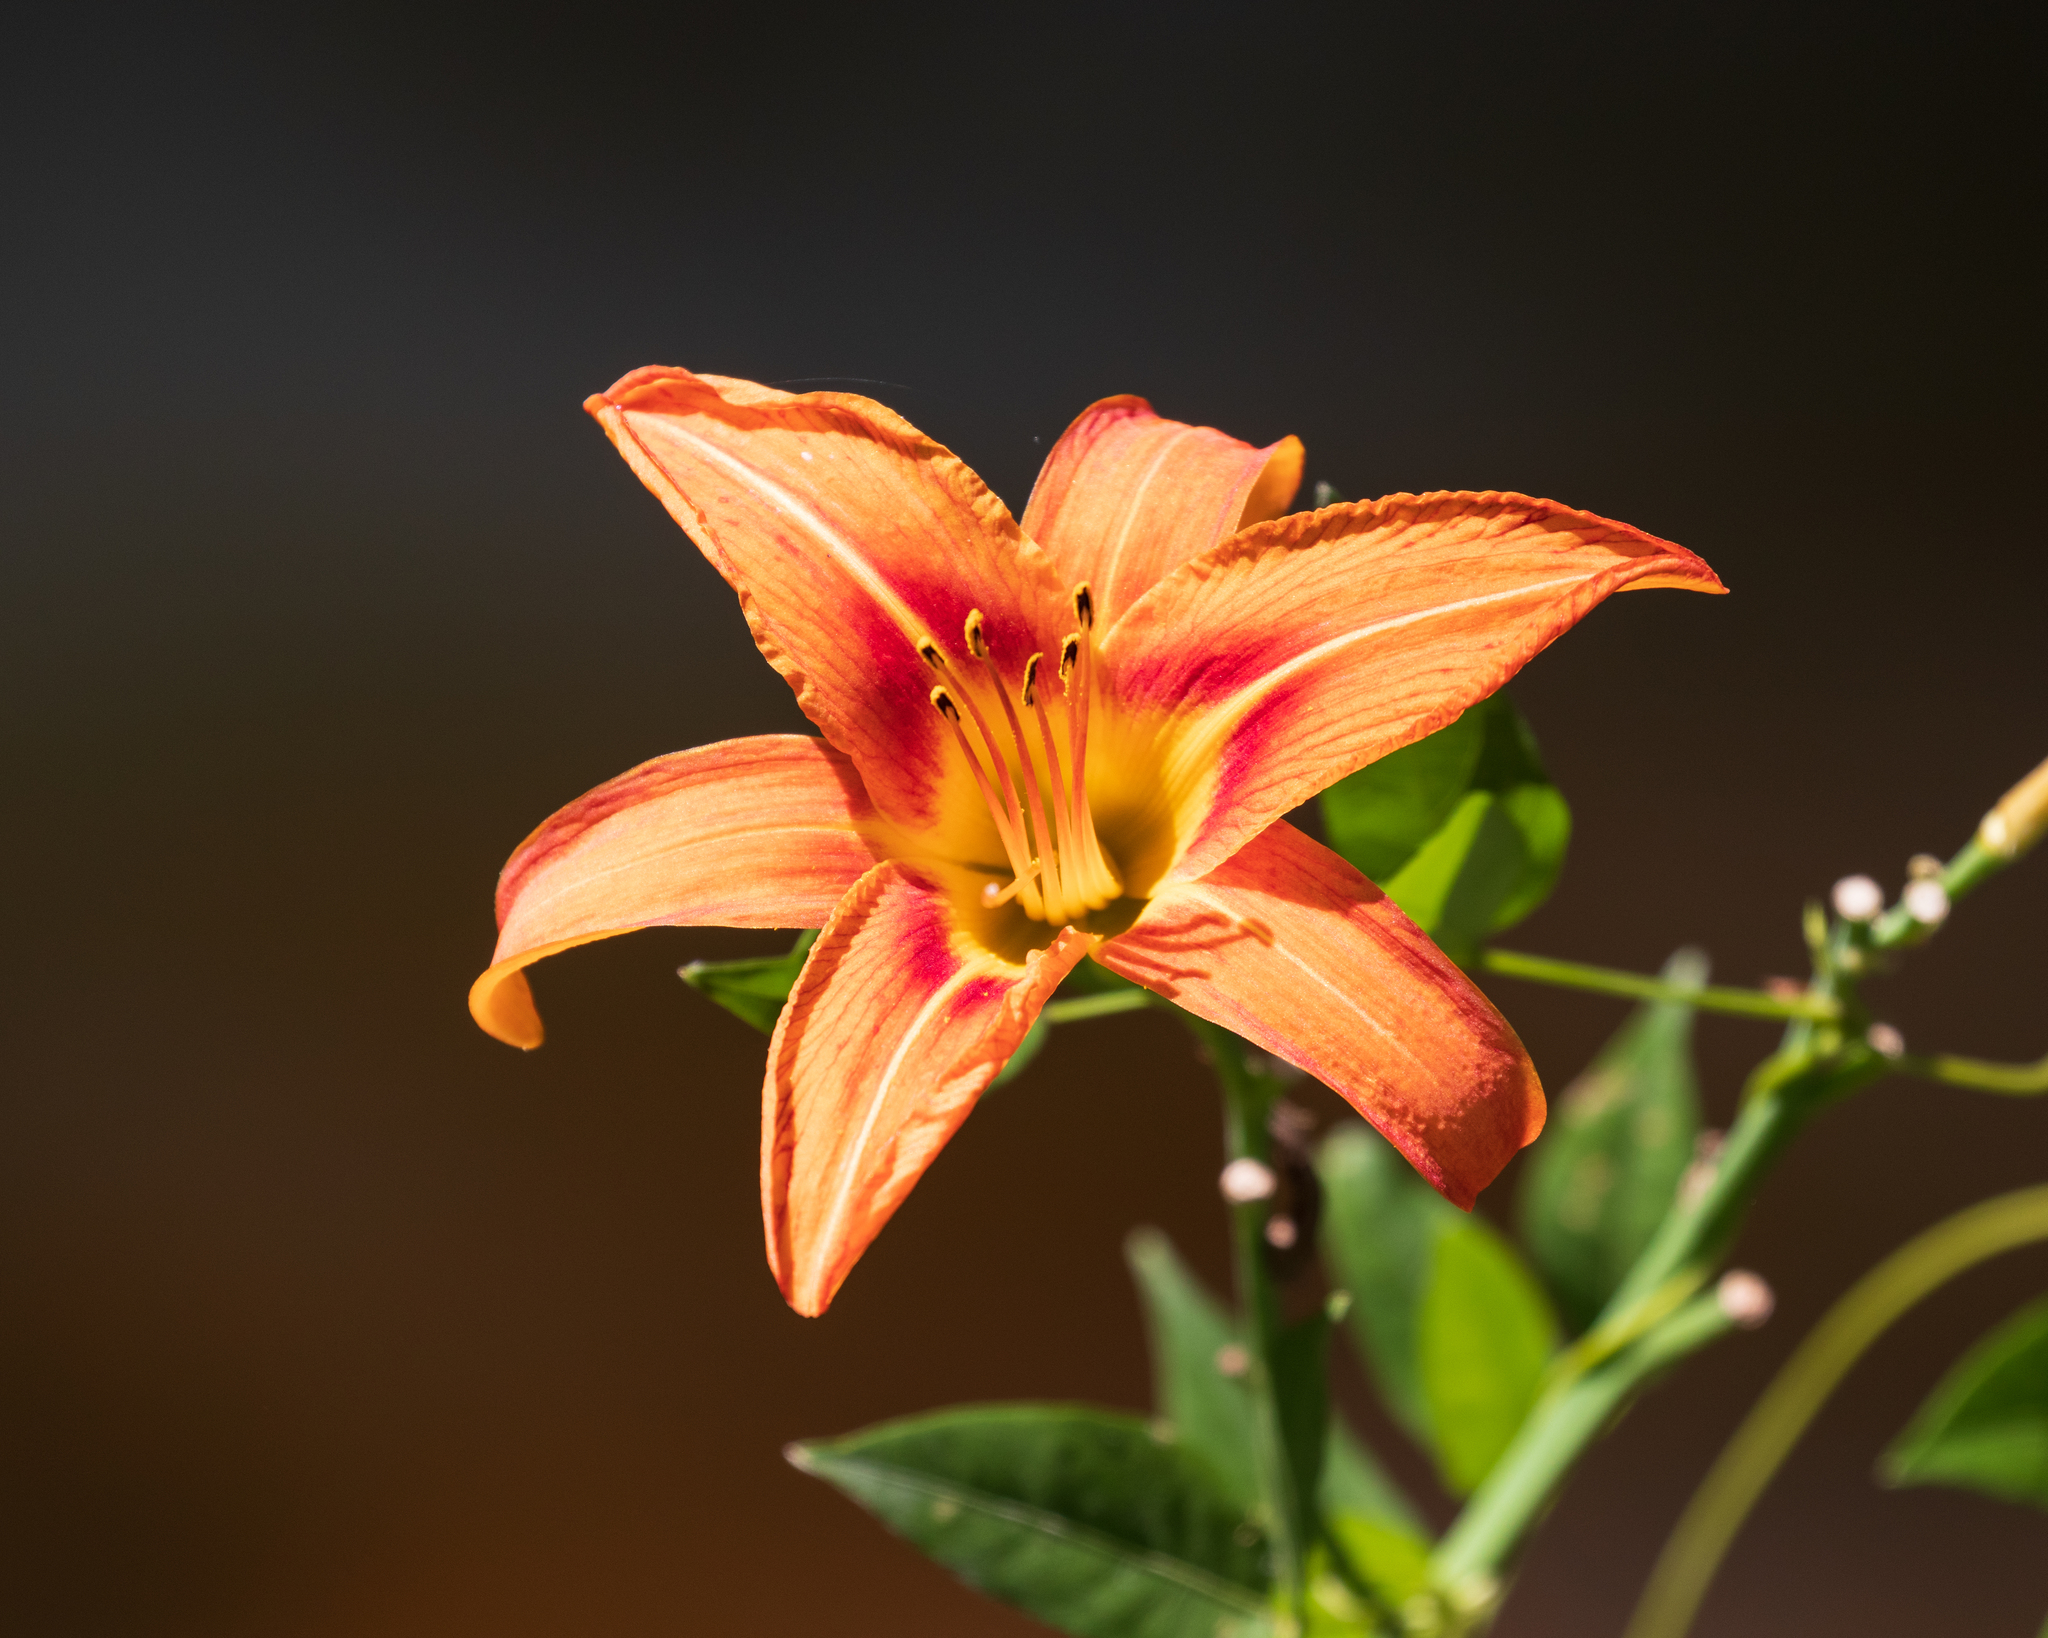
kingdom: Plantae
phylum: Tracheophyta
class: Liliopsida
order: Asparagales
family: Asphodelaceae
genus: Hemerocallis
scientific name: Hemerocallis fulva
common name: Orange day-lily
